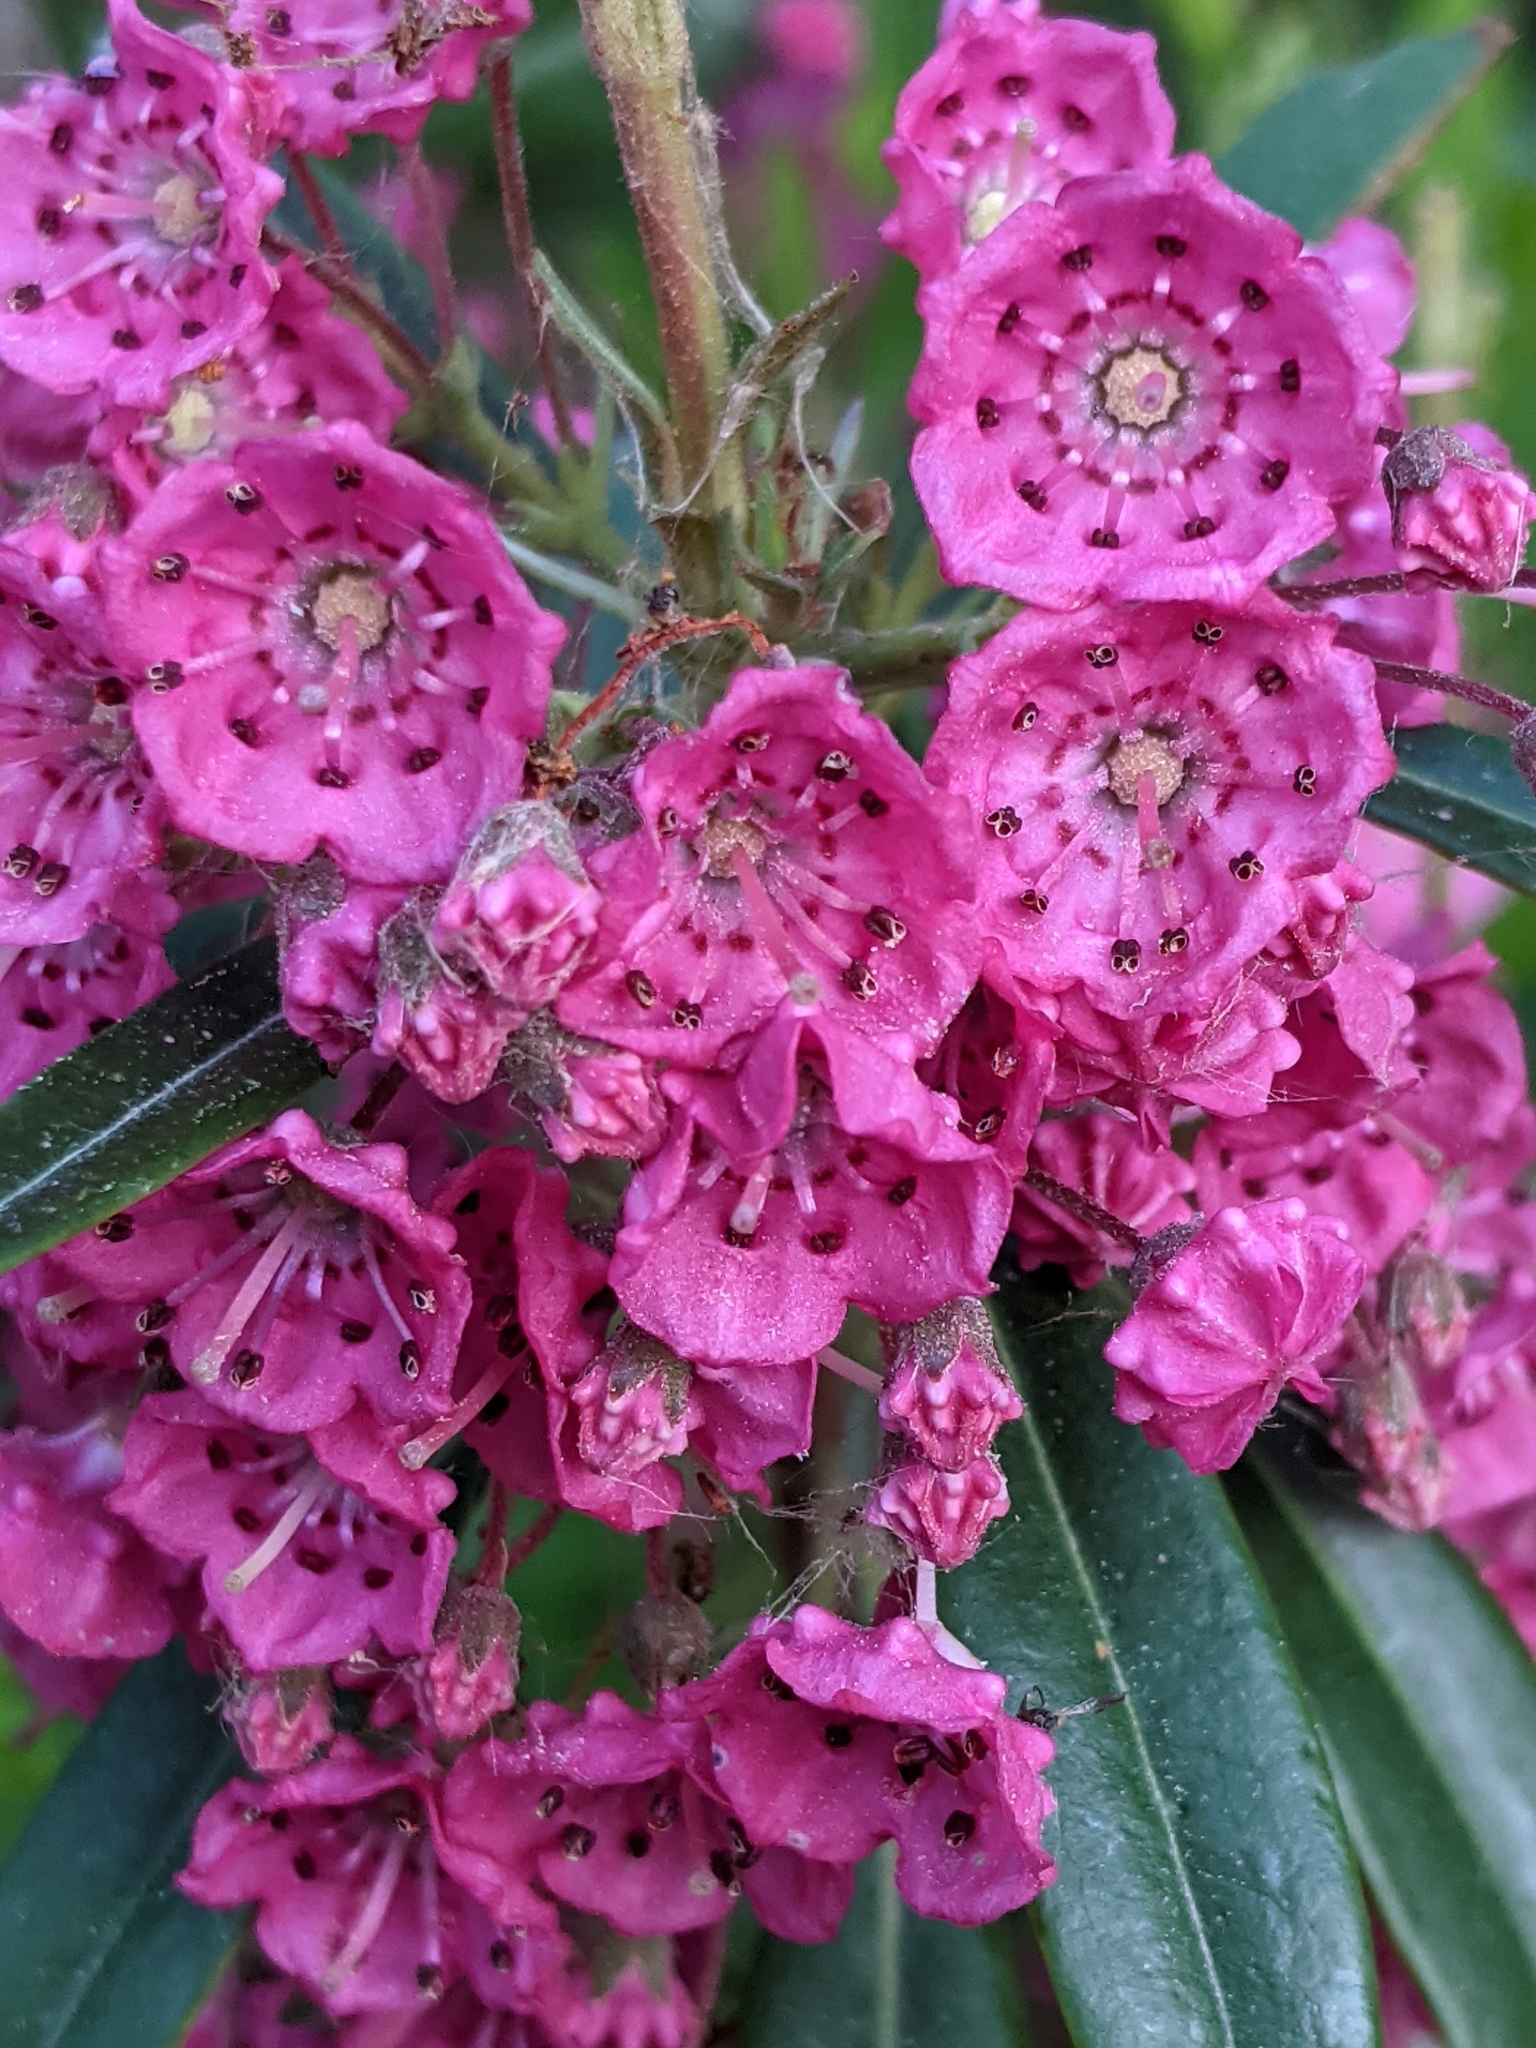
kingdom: Plantae
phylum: Tracheophyta
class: Magnoliopsida
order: Ericales
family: Ericaceae
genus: Kalmia
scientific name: Kalmia angustifolia
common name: Sheep-laurel
